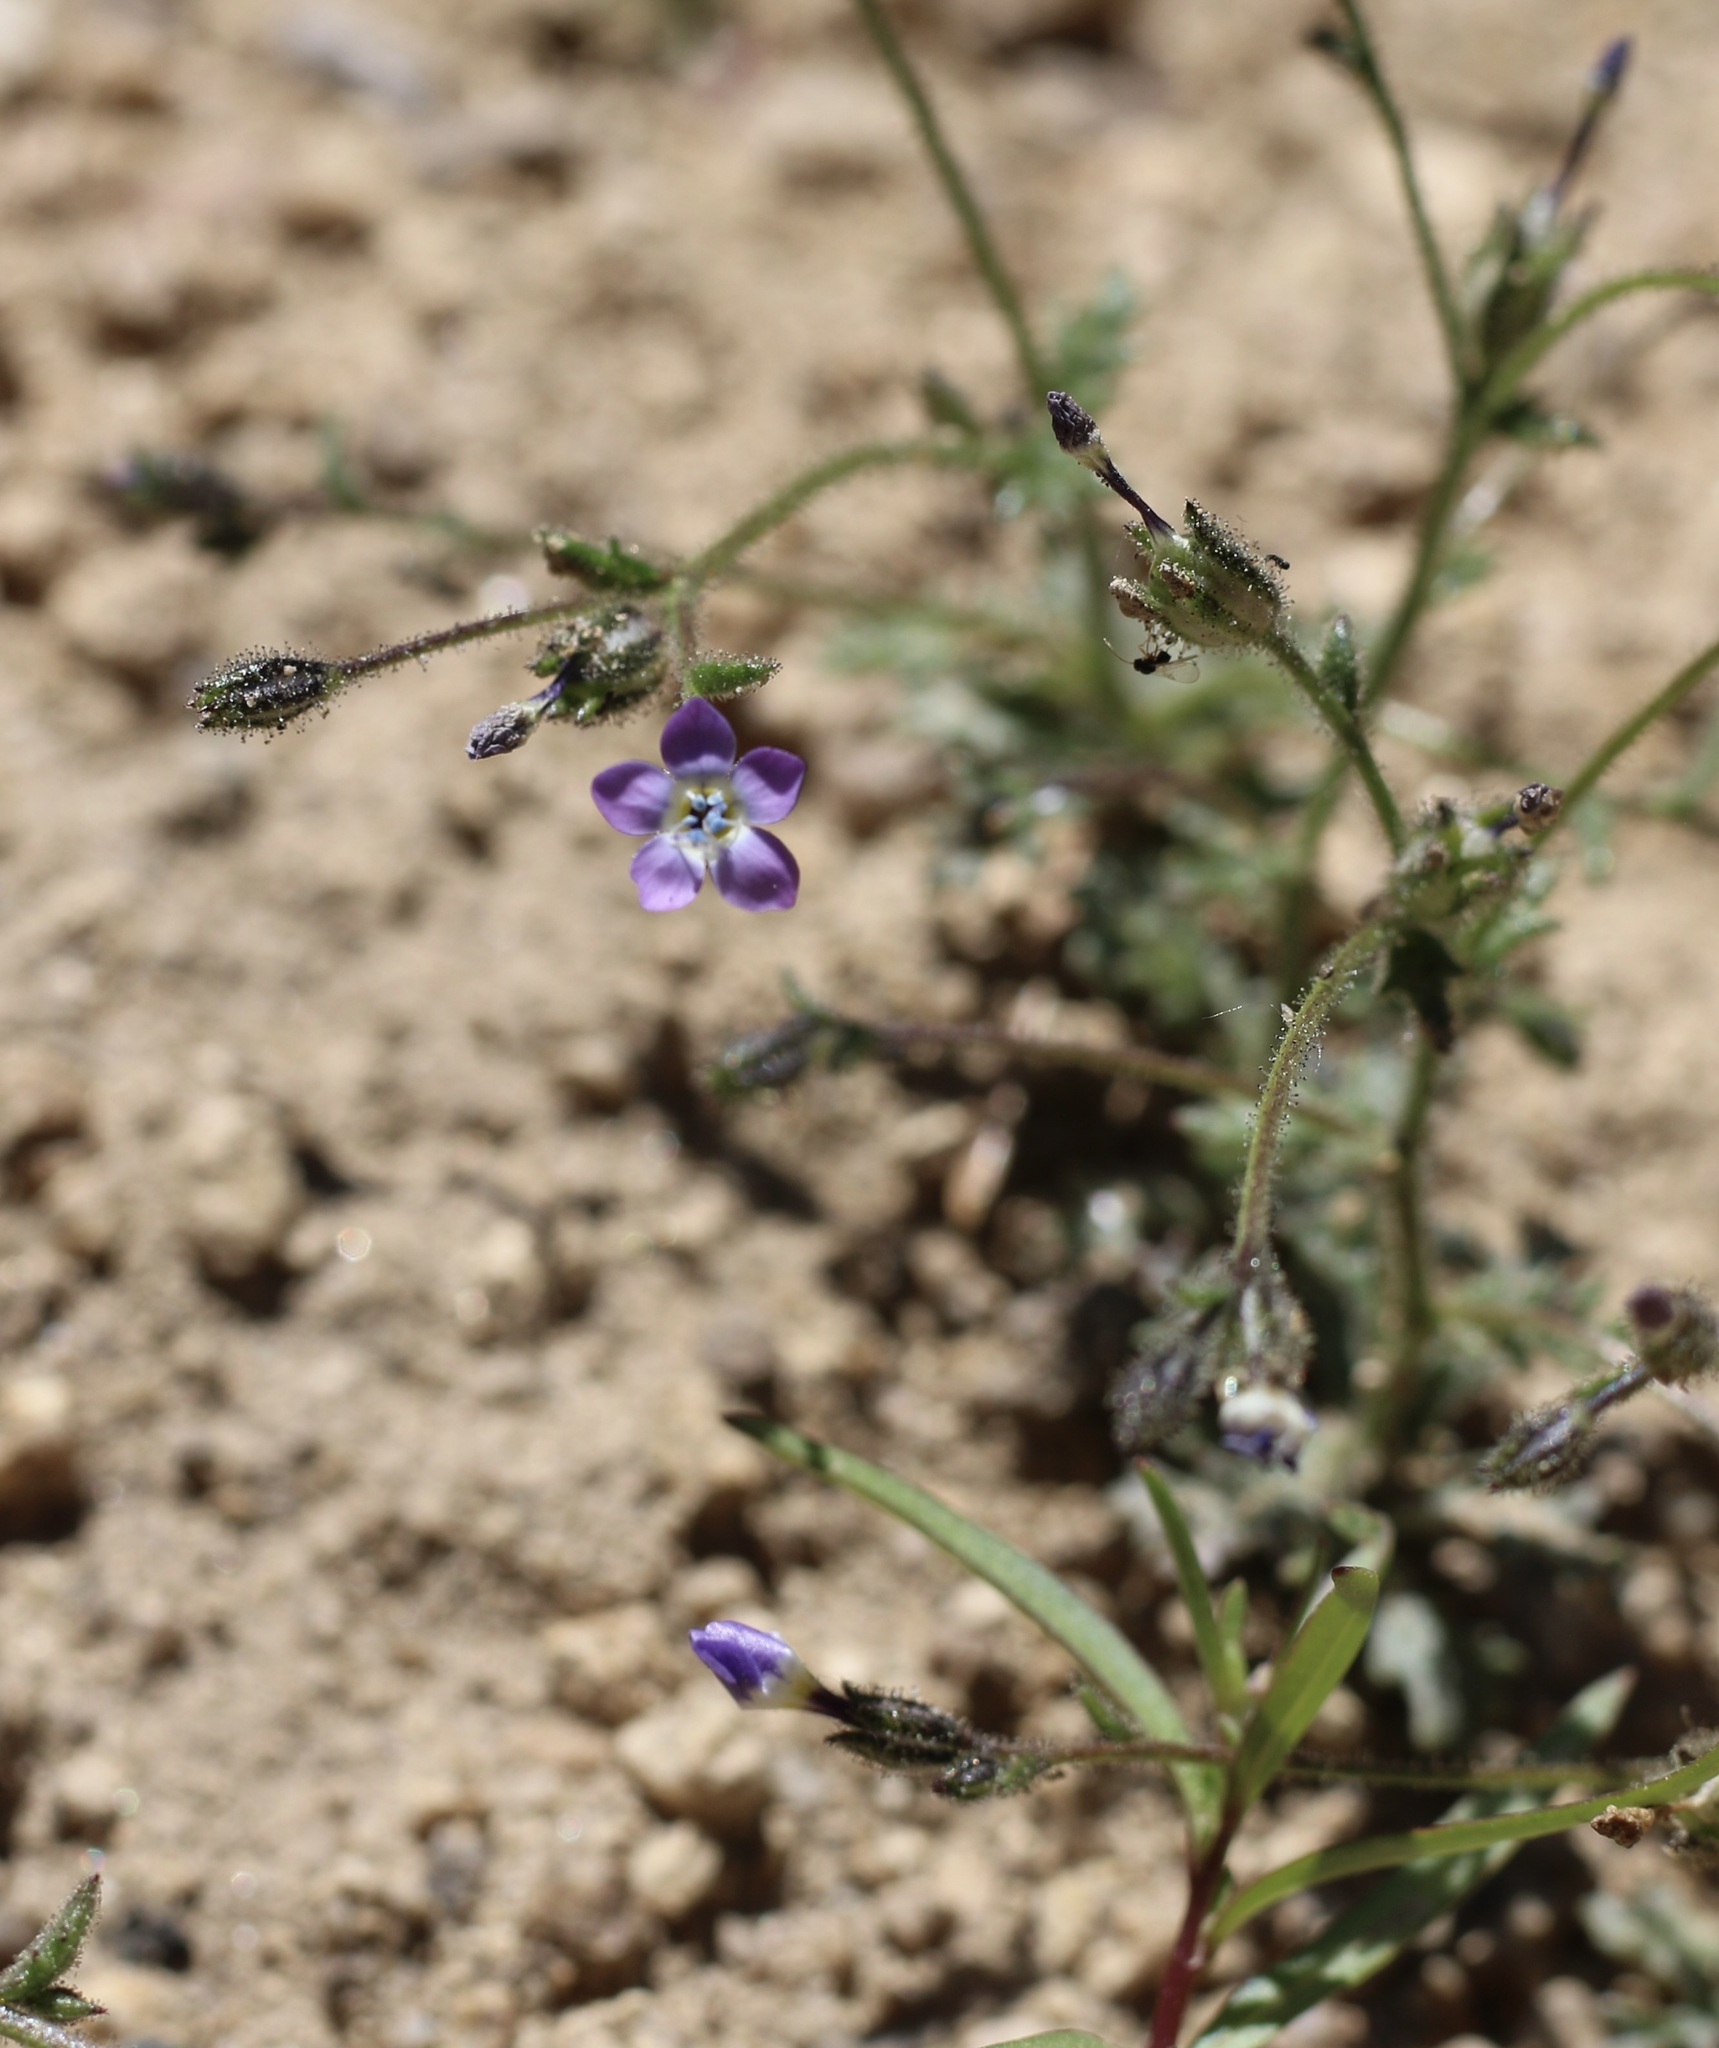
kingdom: Plantae
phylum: Tracheophyta
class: Magnoliopsida
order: Ericales
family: Polemoniaceae
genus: Gilia
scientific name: Gilia brecciarum
